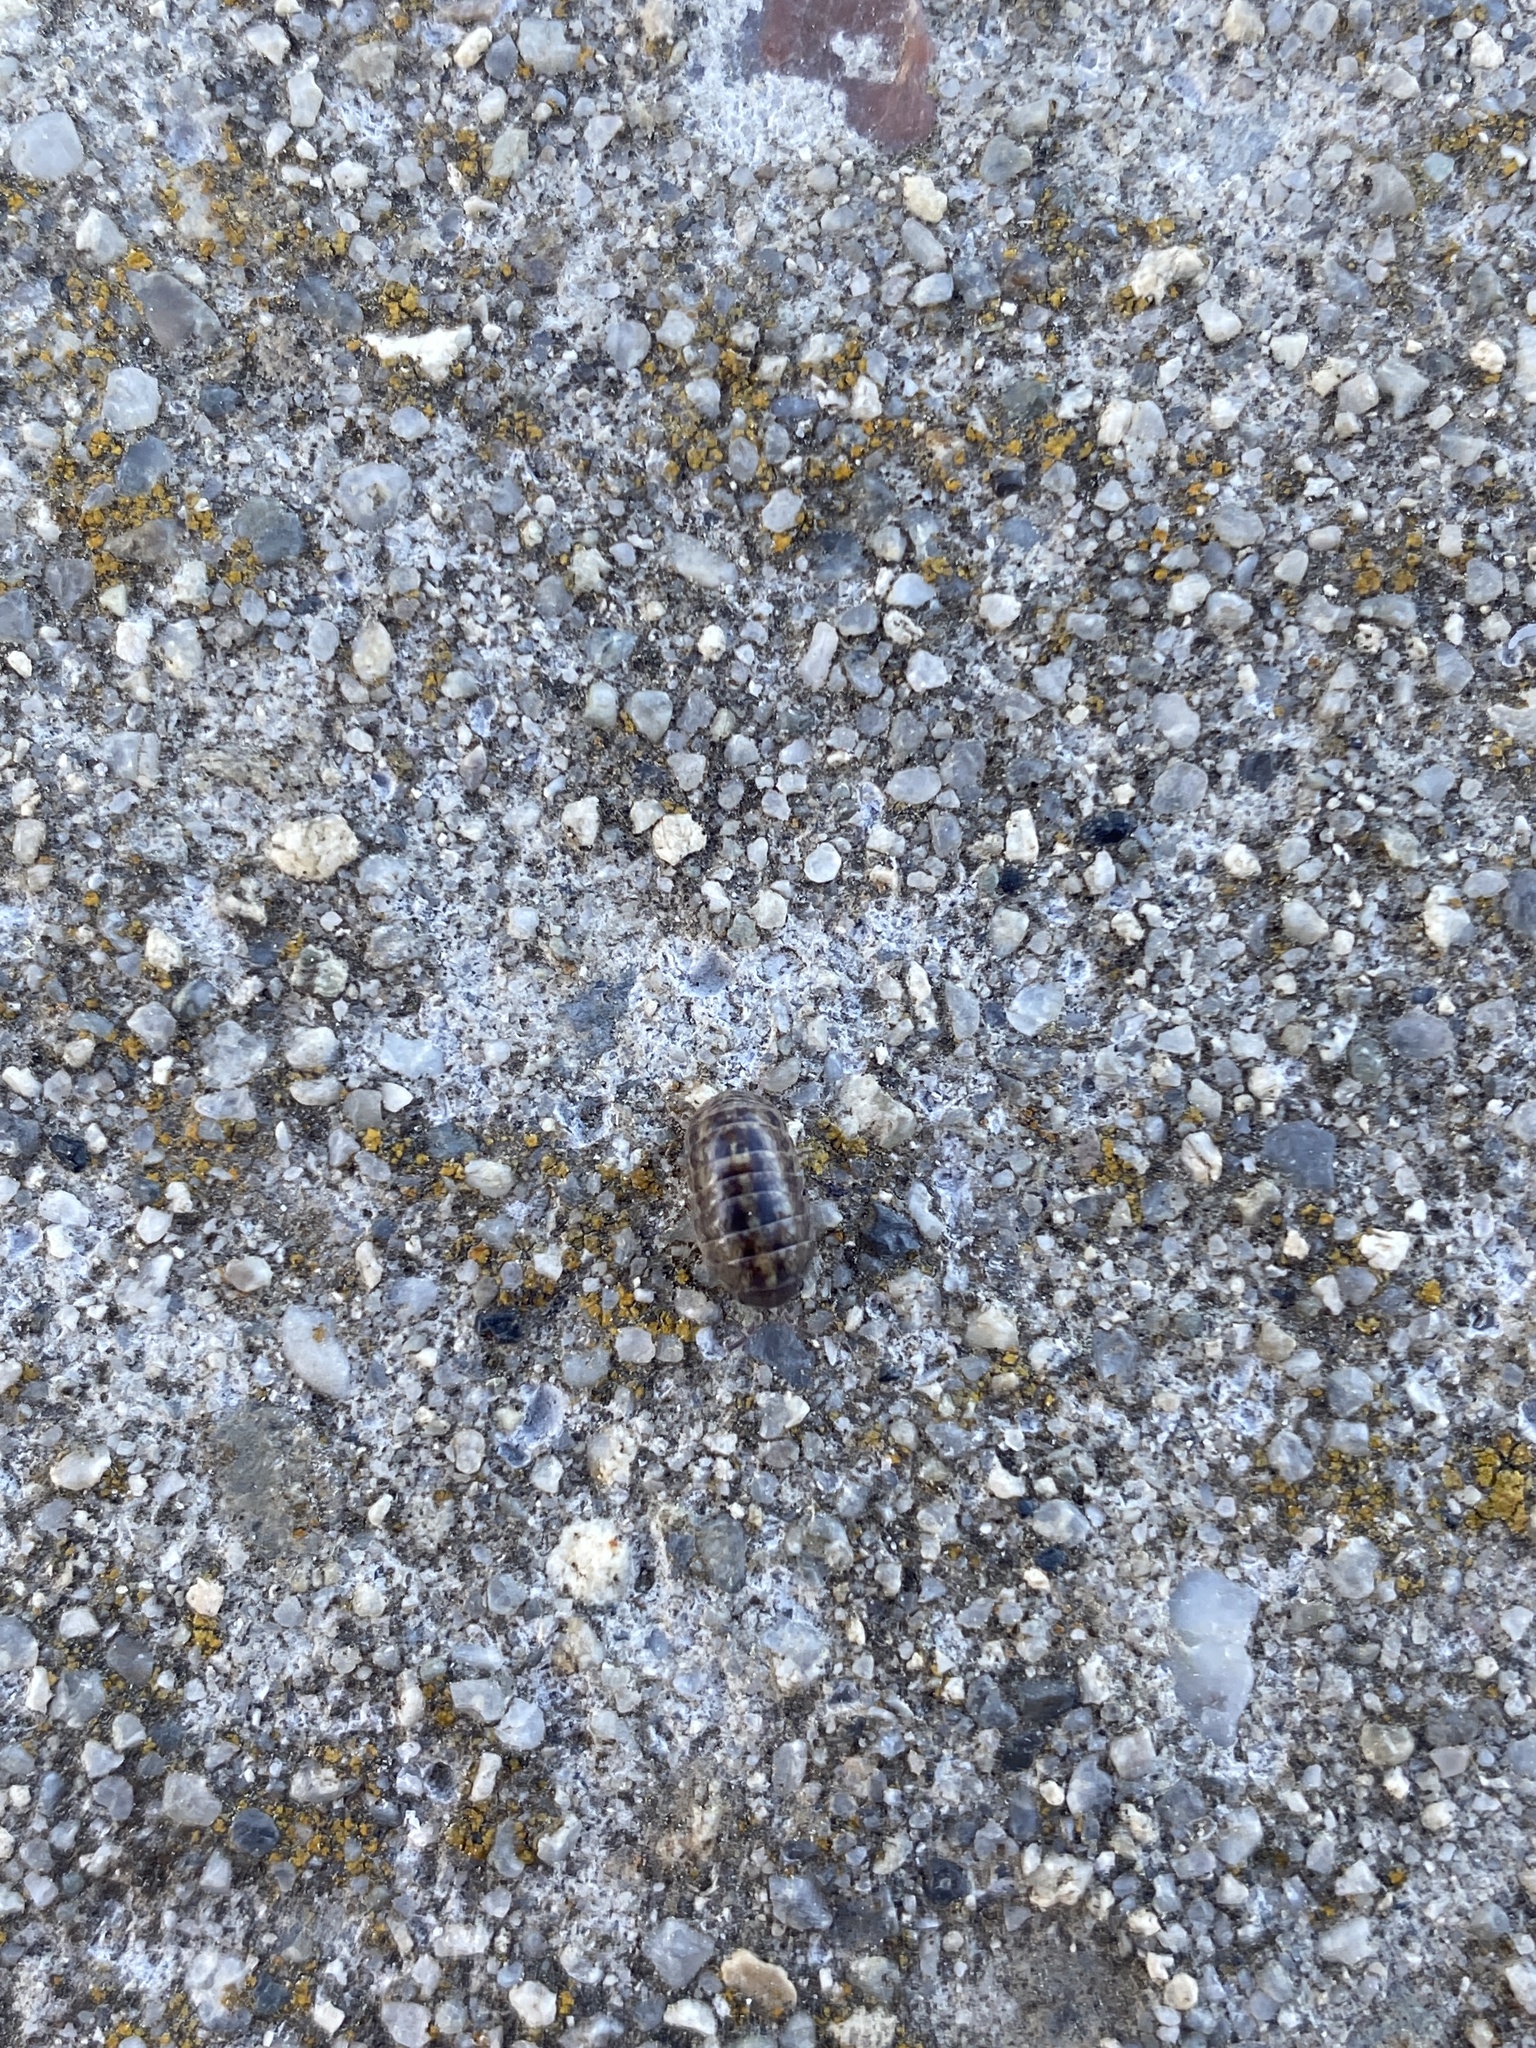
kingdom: Animalia
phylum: Arthropoda
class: Malacostraca
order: Isopoda
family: Armadillidiidae
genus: Armadillidium
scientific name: Armadillidium vulgare
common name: Common pill woodlouse
